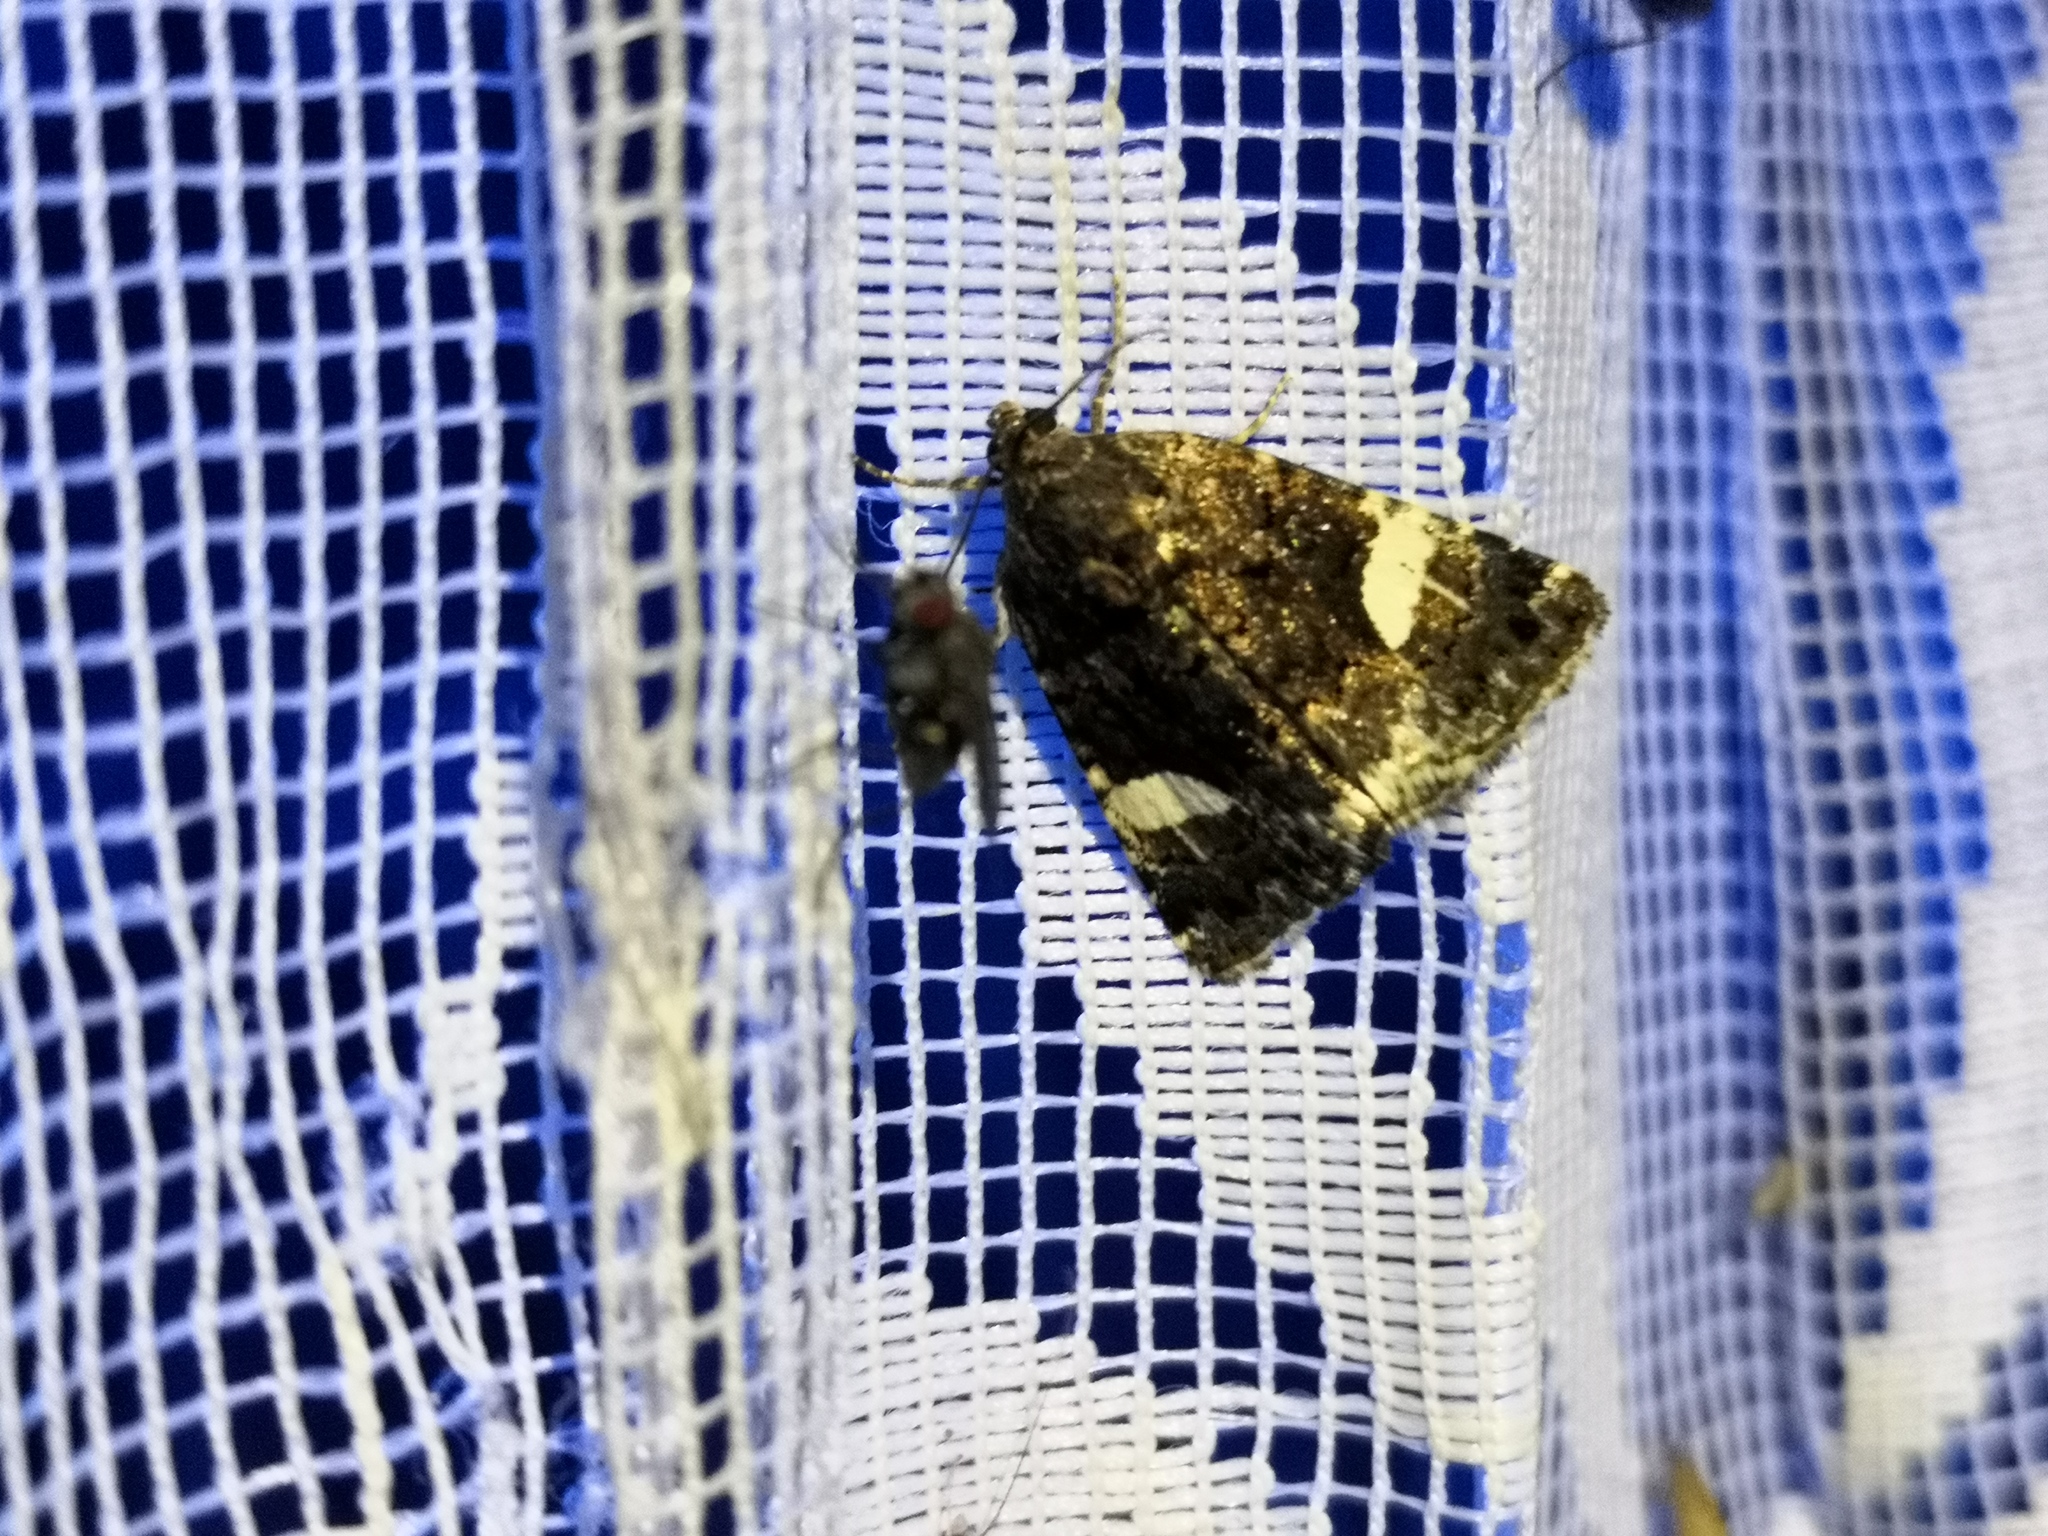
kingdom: Animalia
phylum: Arthropoda
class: Insecta
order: Lepidoptera
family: Erebidae
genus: Tyta
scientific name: Tyta luctuosa
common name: Four-spotted
